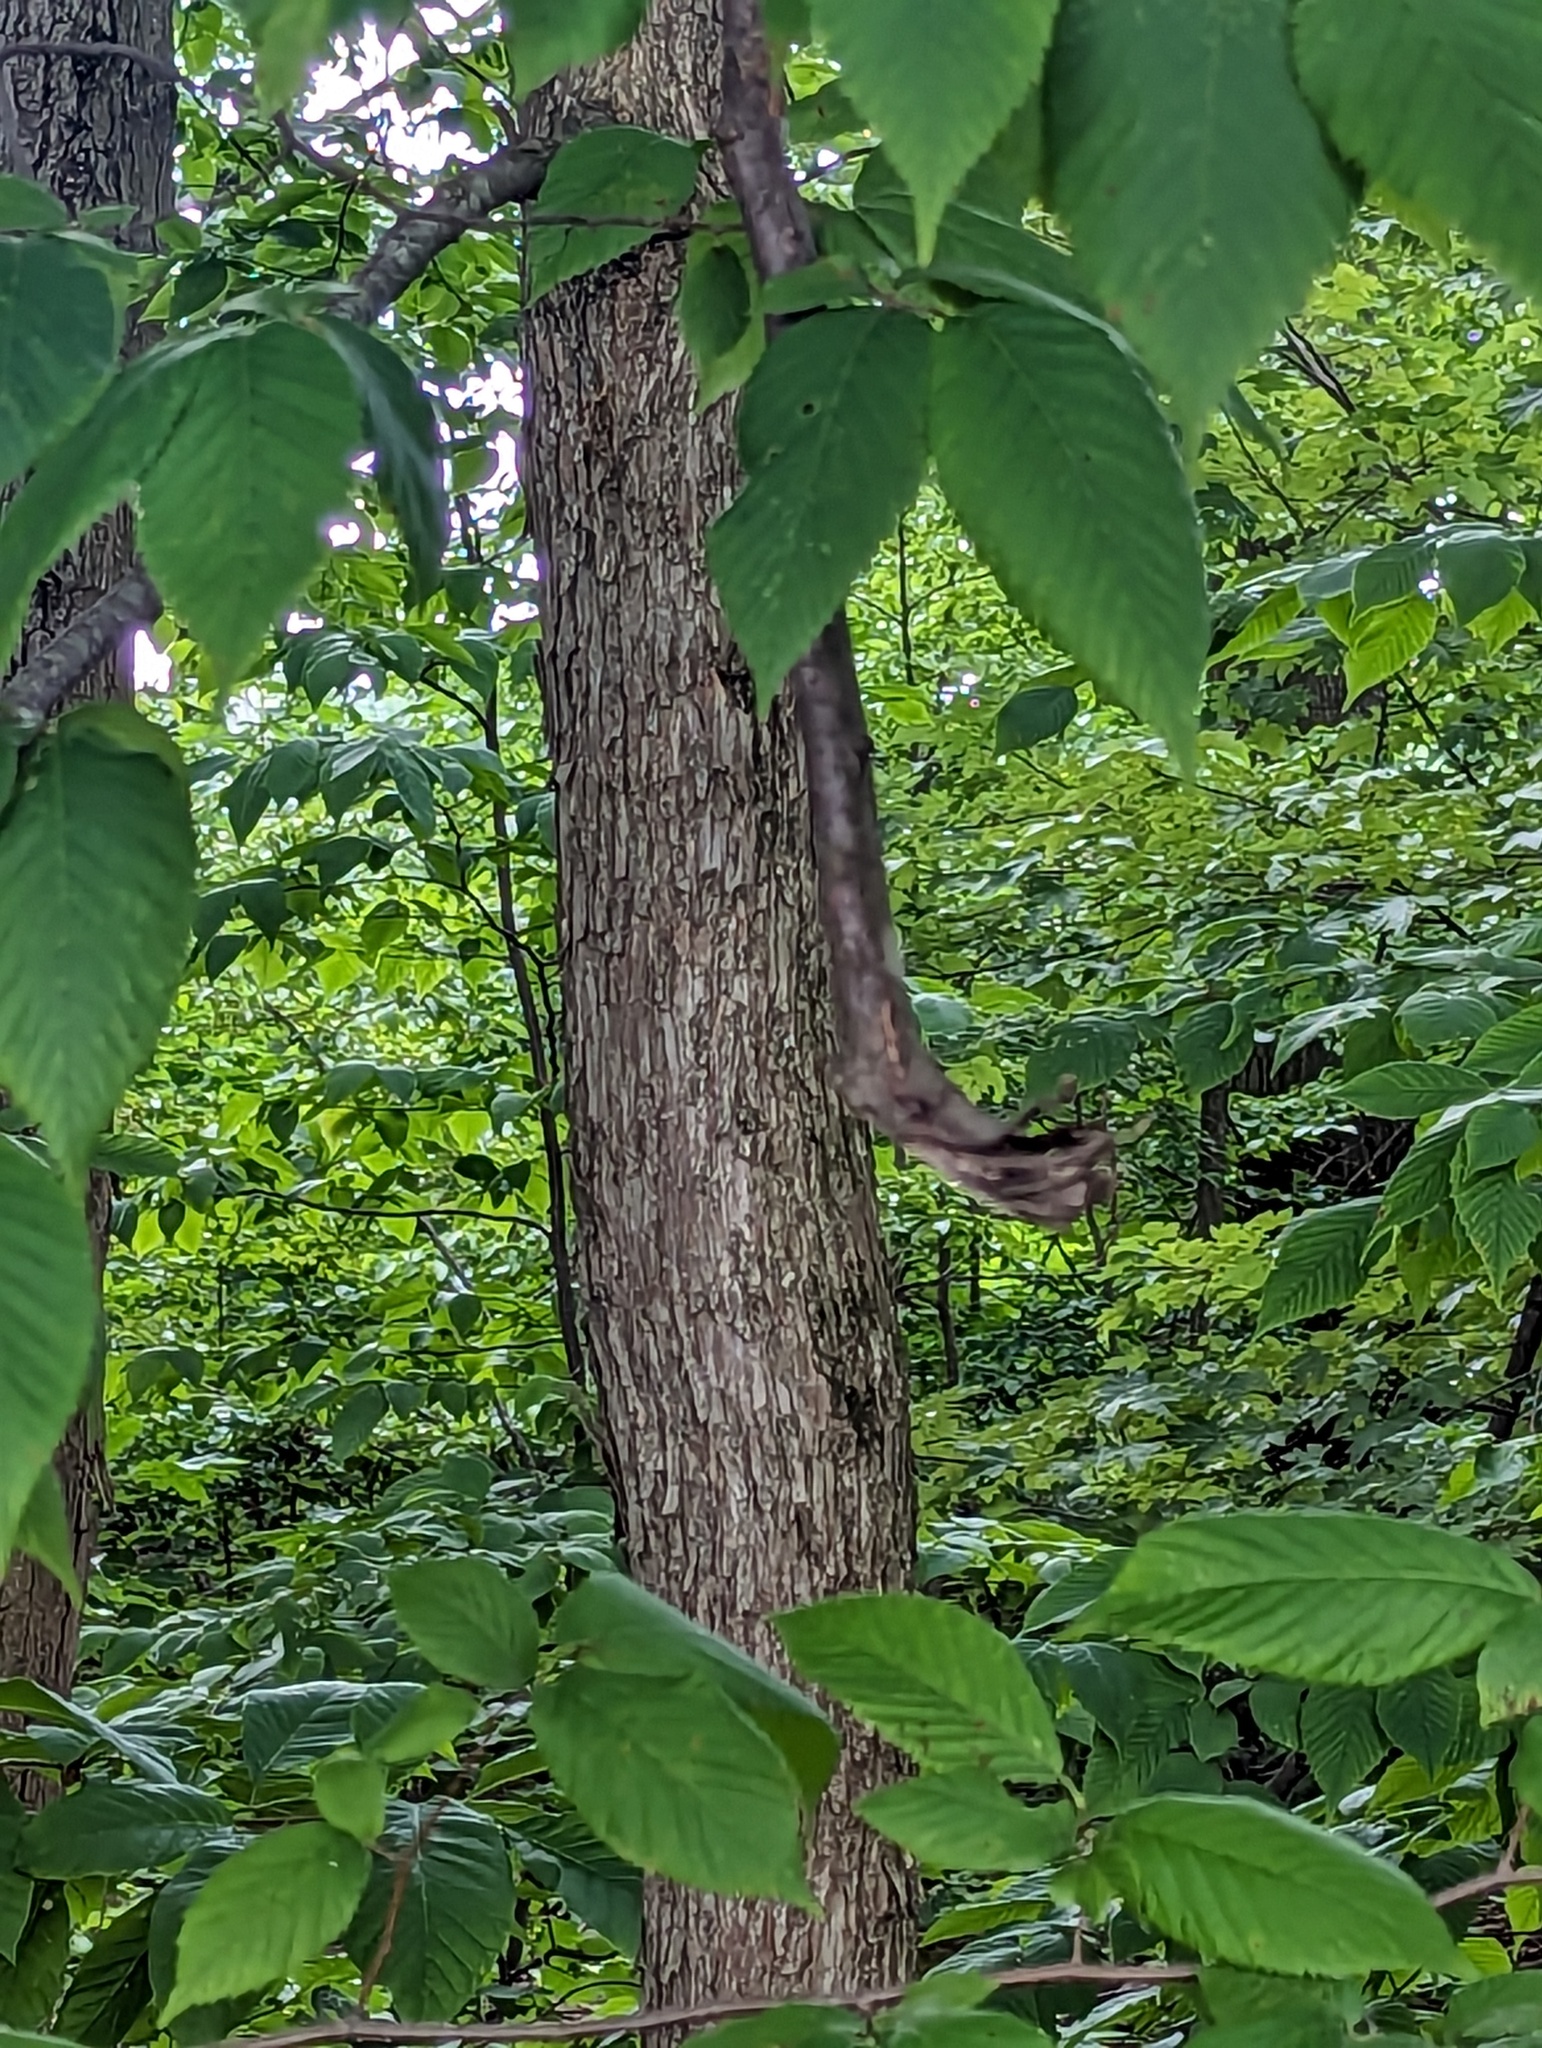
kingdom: Plantae
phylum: Tracheophyta
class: Magnoliopsida
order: Fagales
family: Betulaceae
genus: Ostrya
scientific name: Ostrya virginiana
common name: Ironwood
